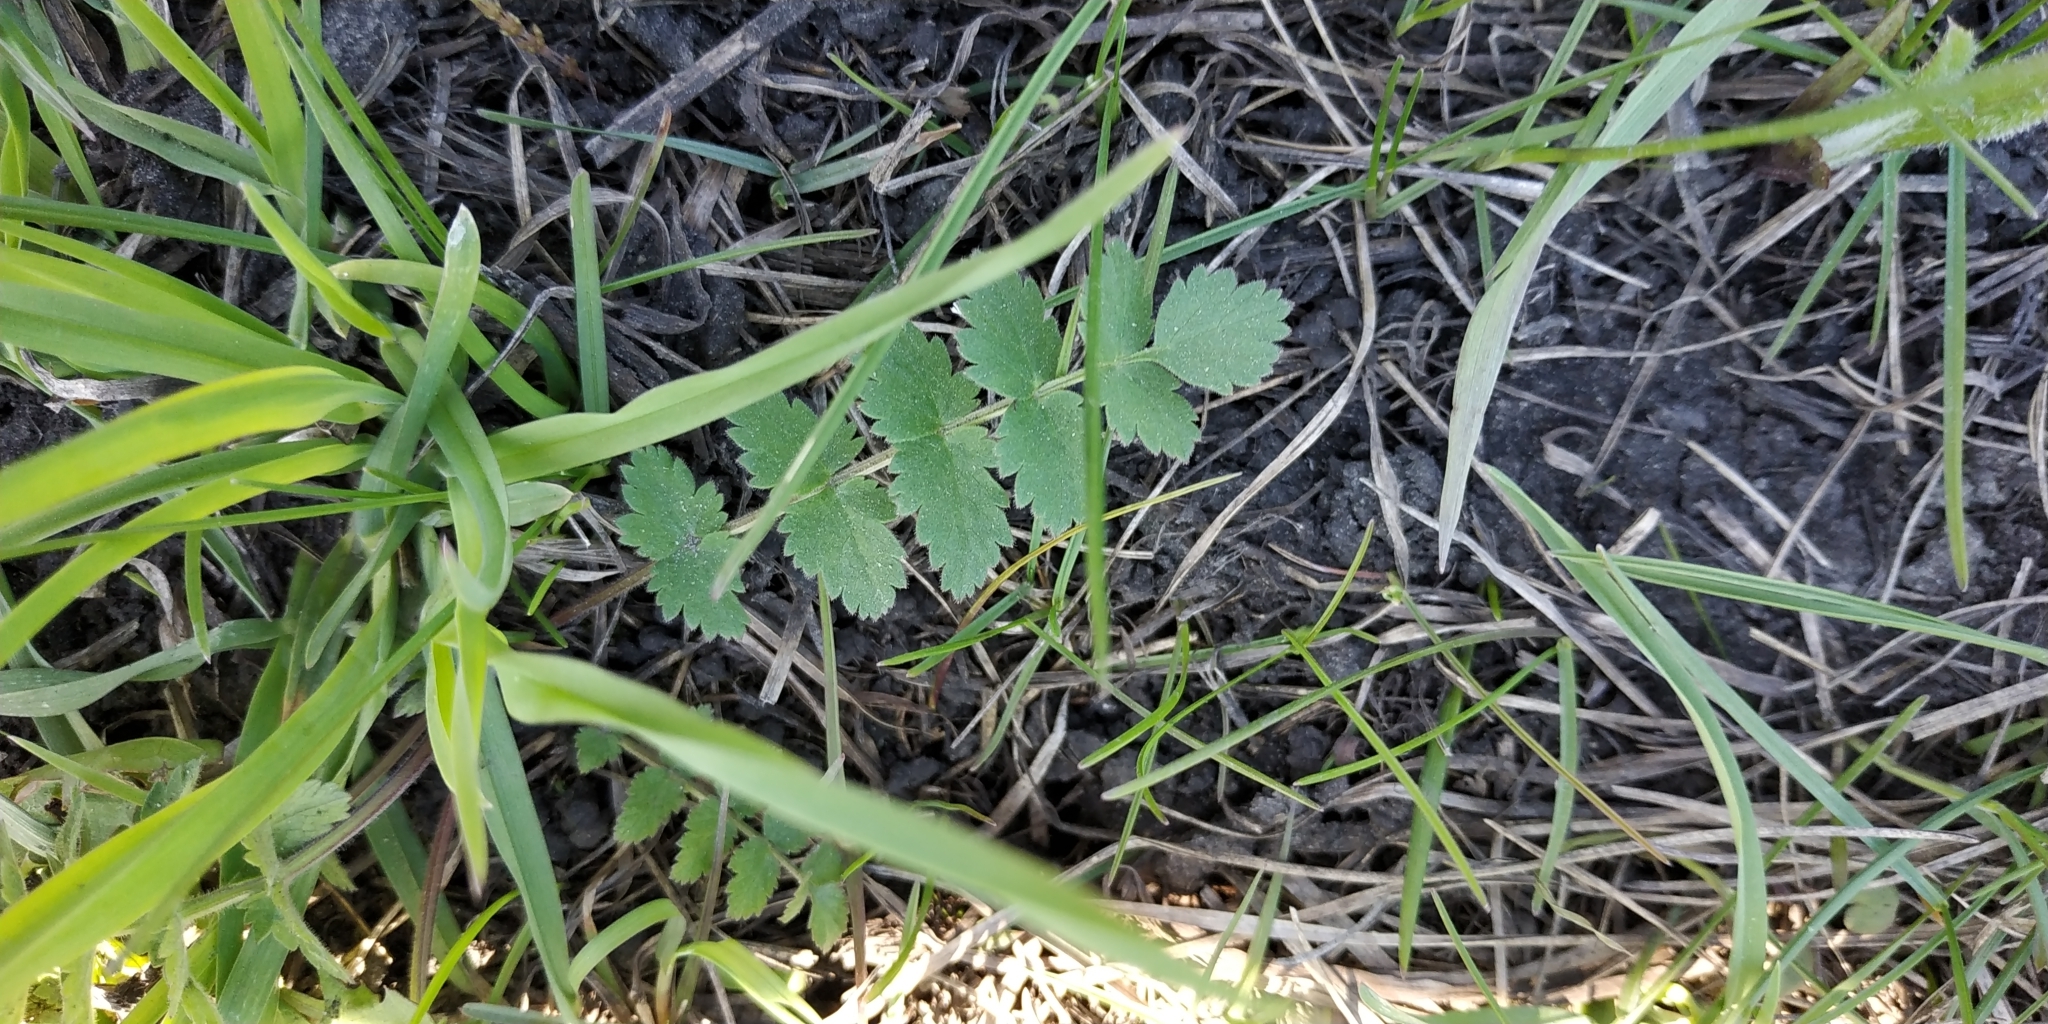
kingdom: Plantae
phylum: Tracheophyta
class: Magnoliopsida
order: Apiales
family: Apiaceae
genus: Pimpinella
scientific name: Pimpinella saxifraga
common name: Burnet-saxifrage
